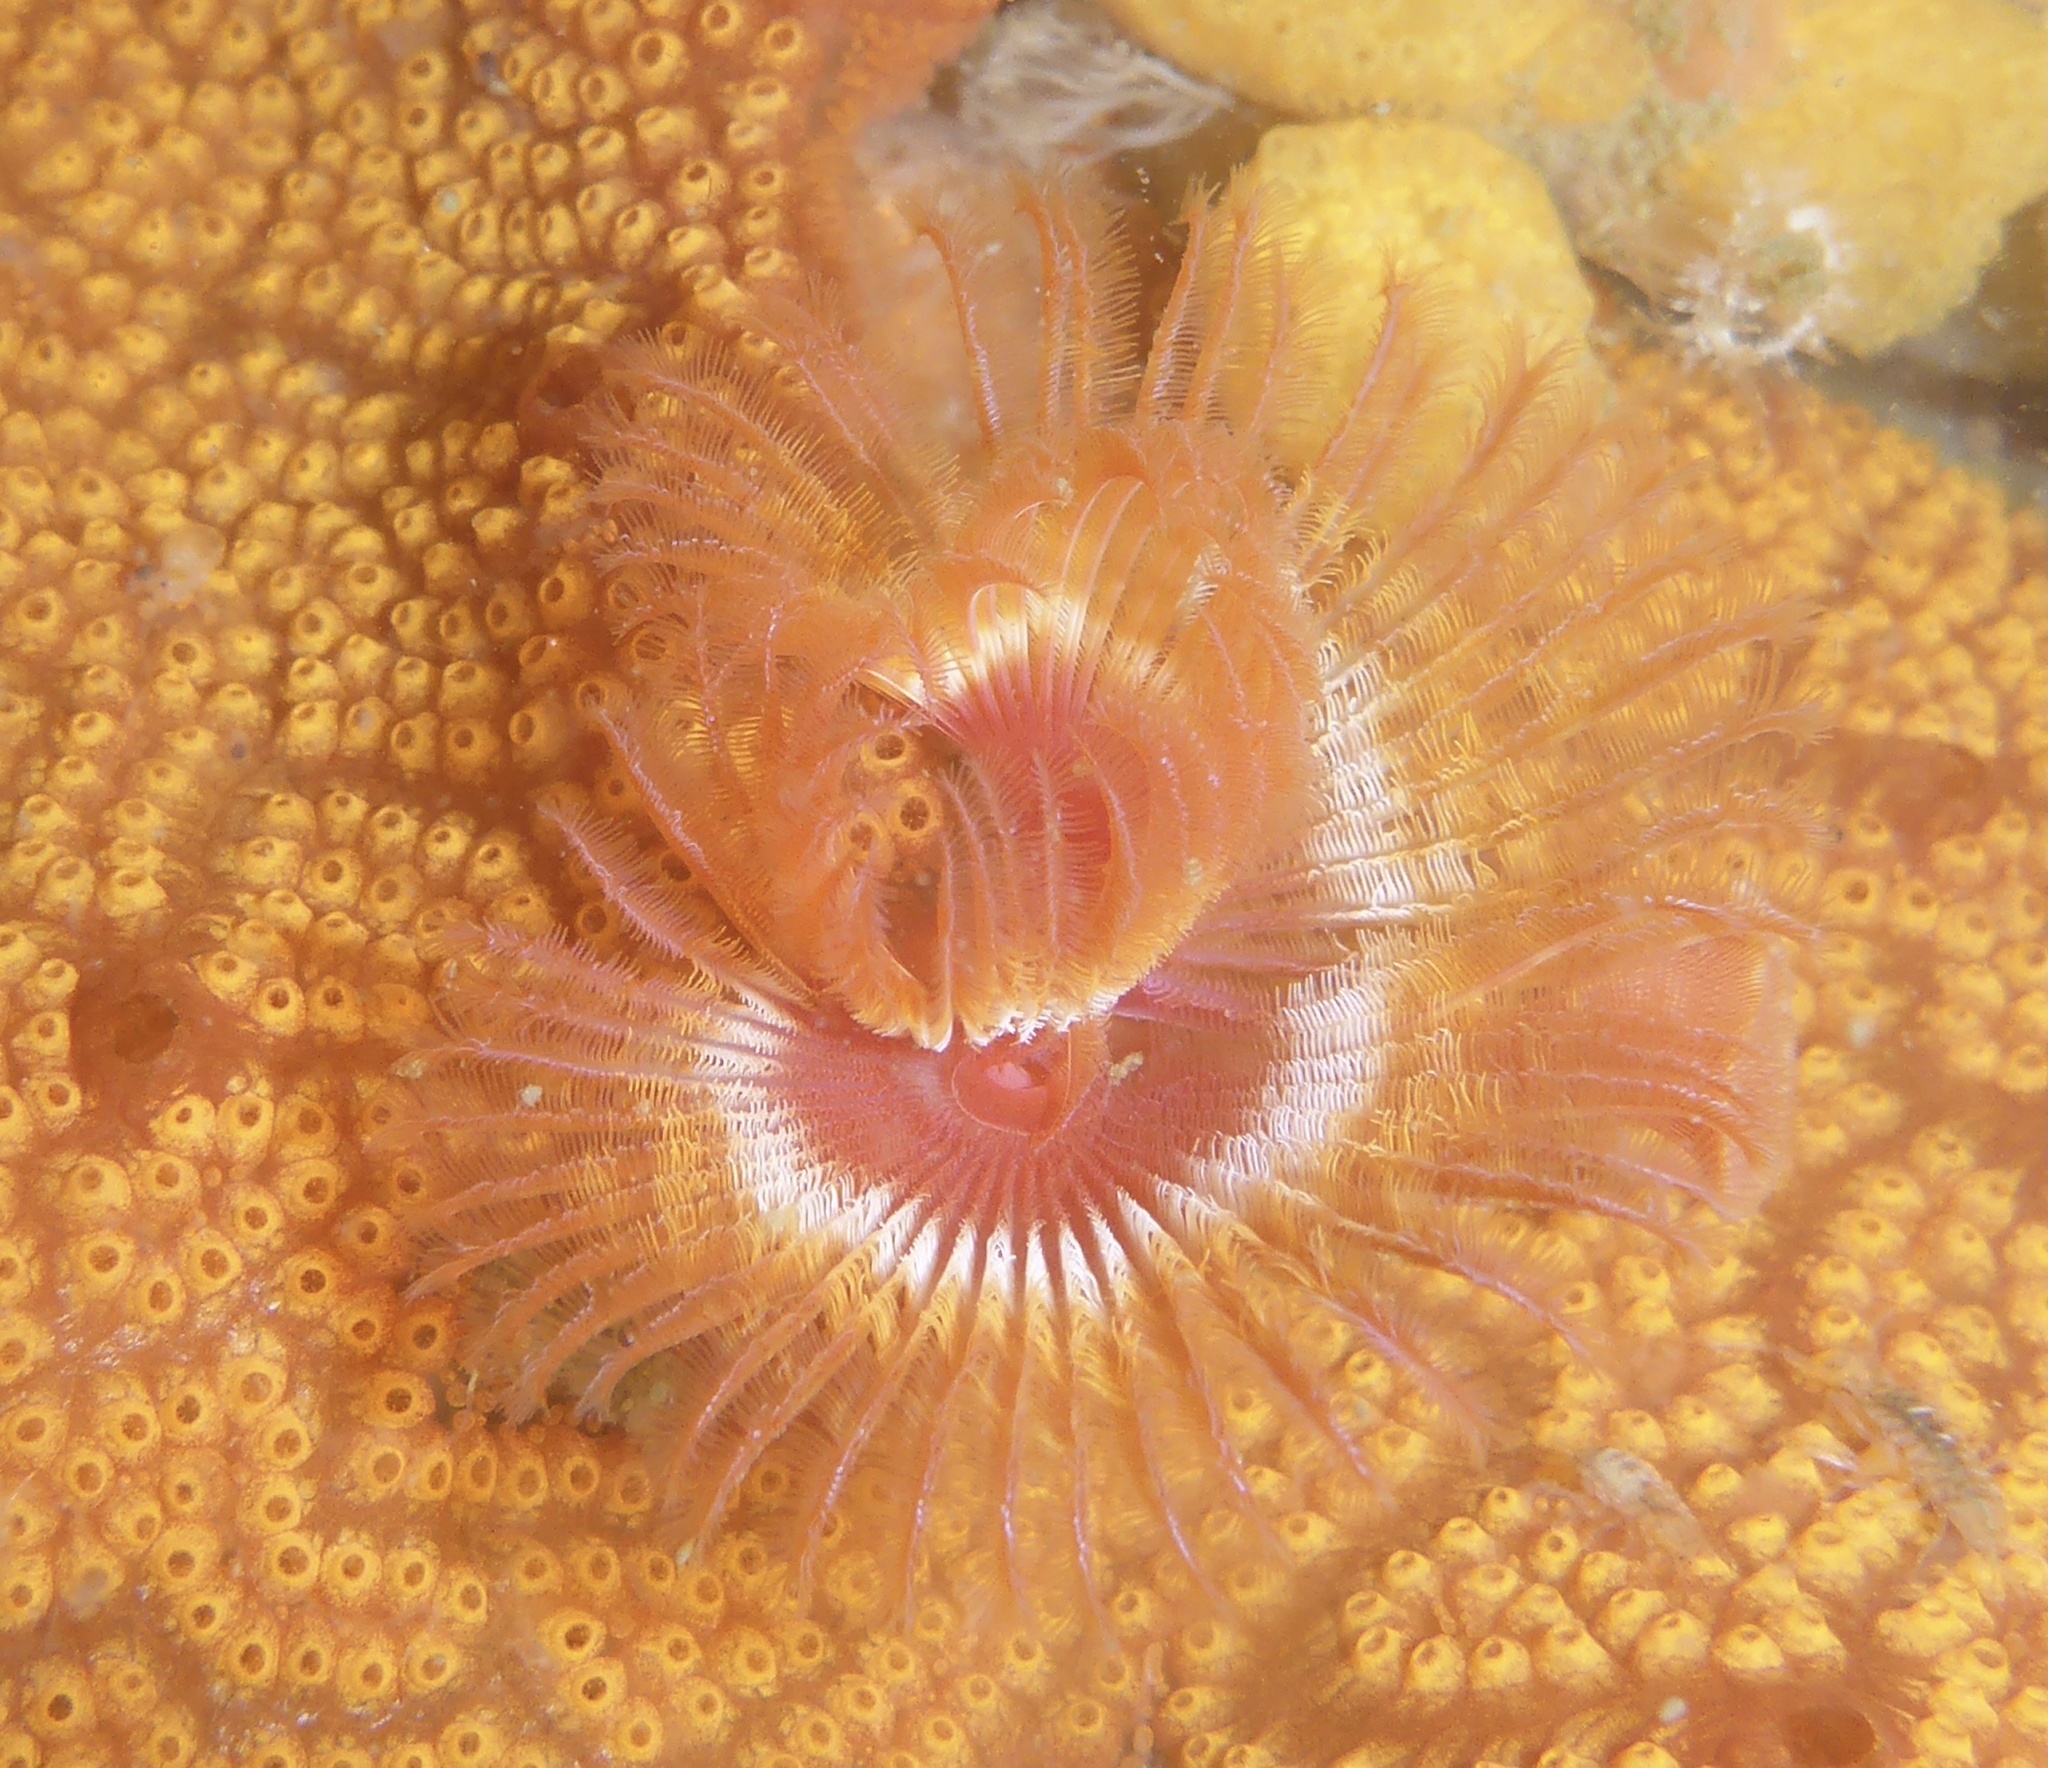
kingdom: Animalia
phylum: Annelida
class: Polychaeta
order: Sabellida
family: Serpulidae
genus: Serpula
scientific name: Serpula columbiana
